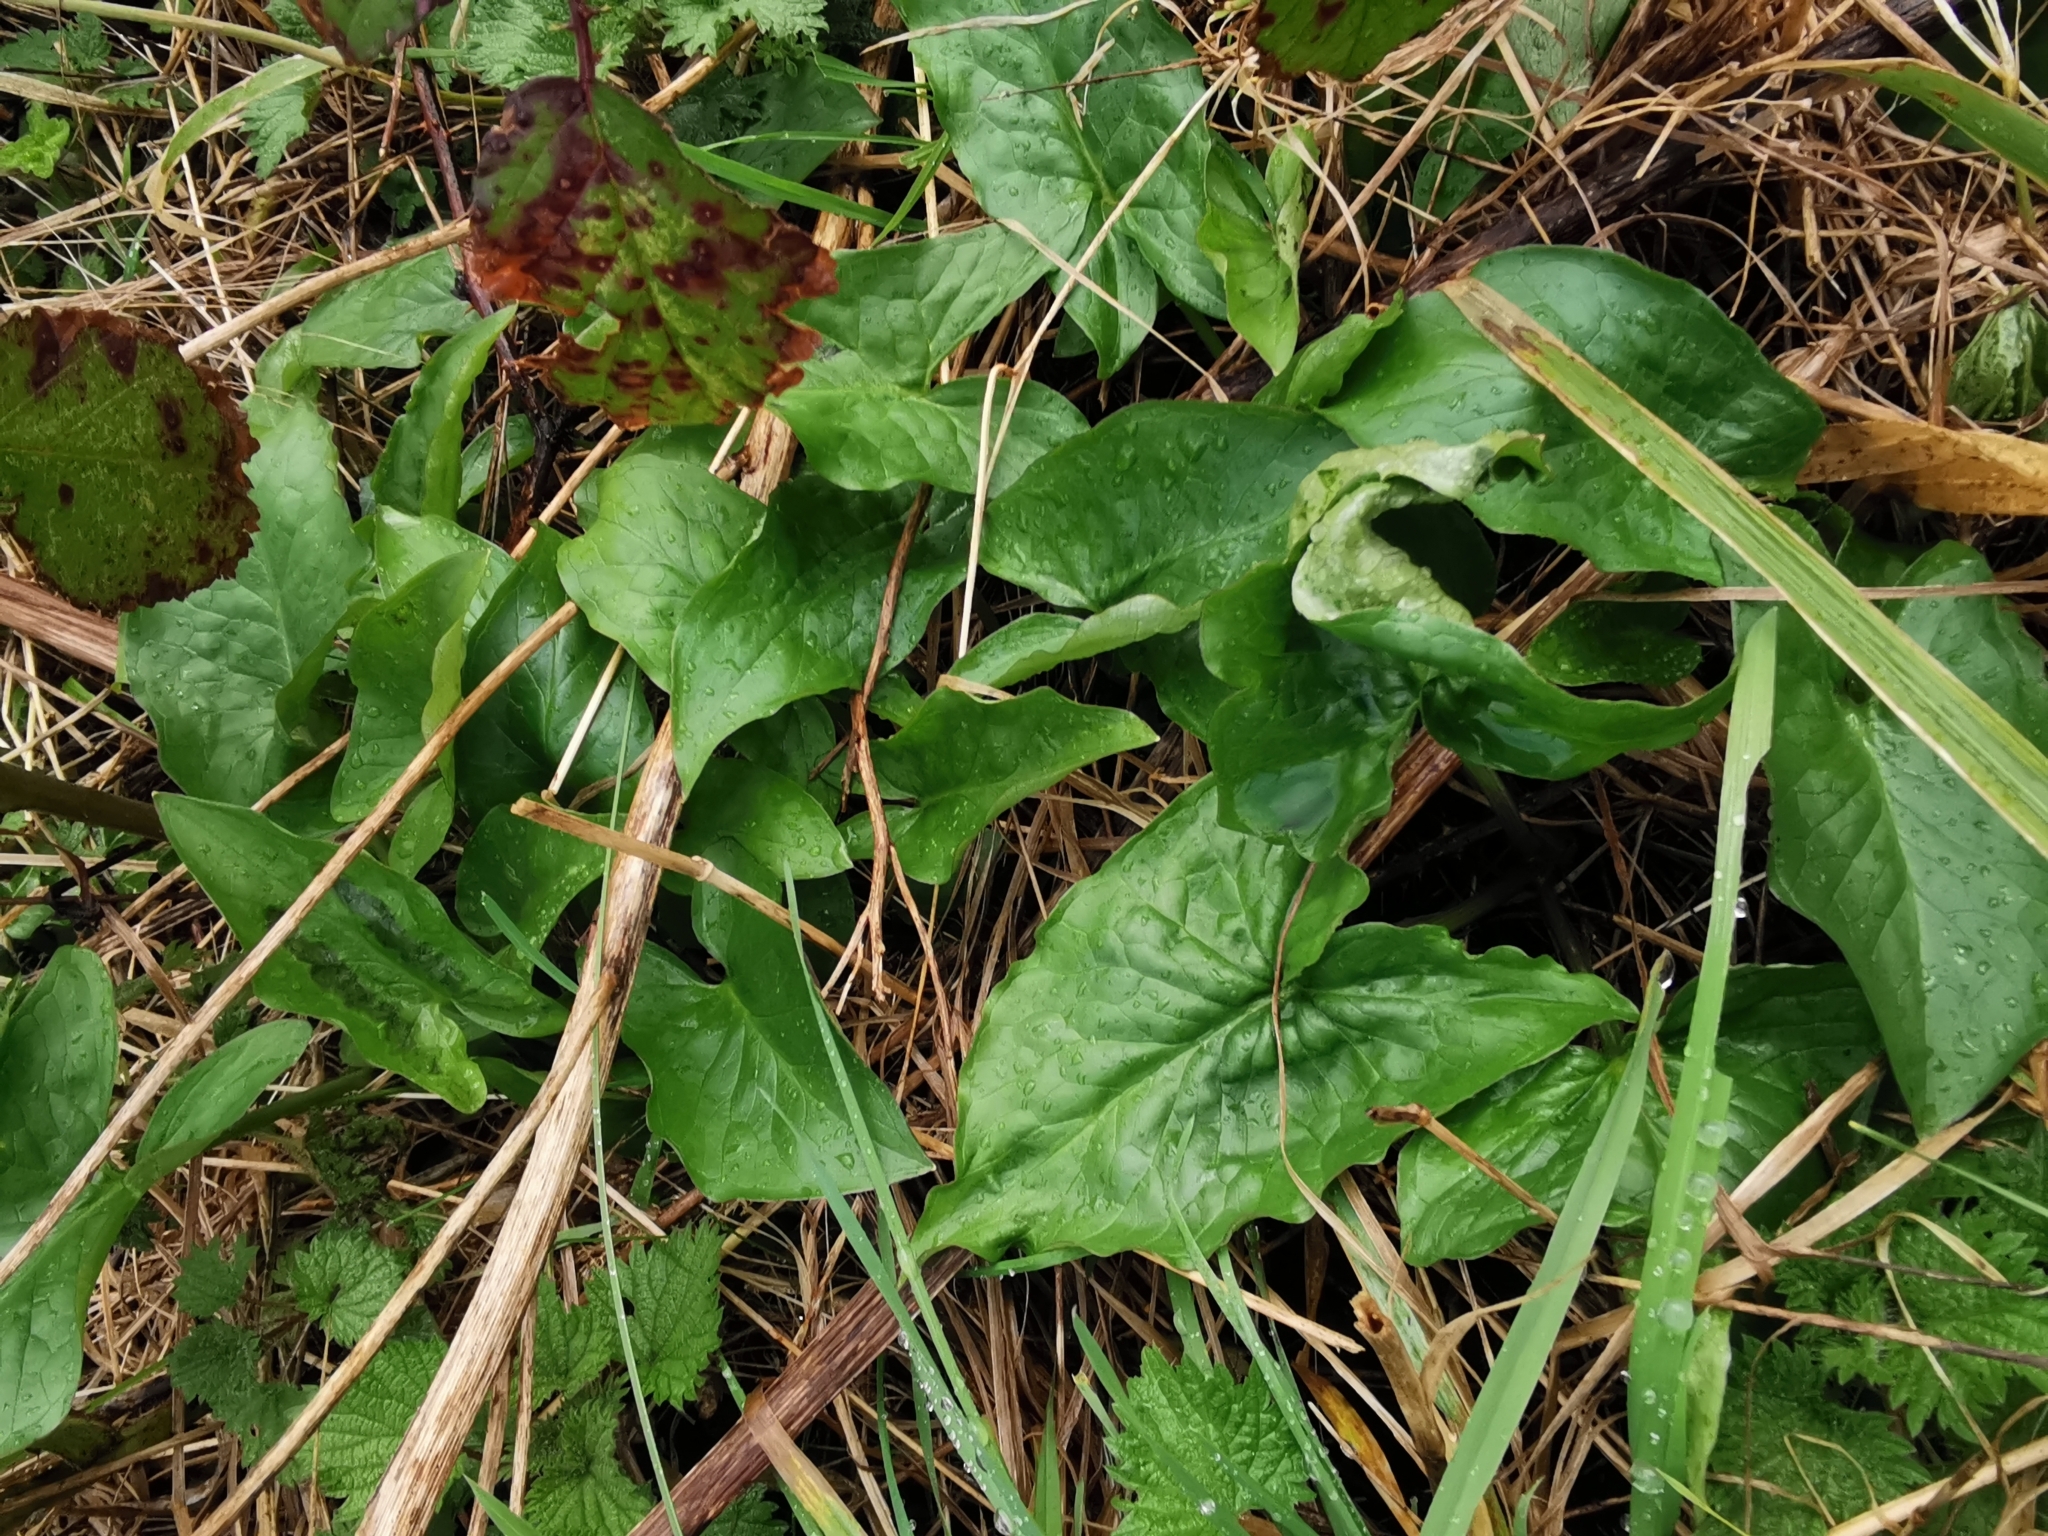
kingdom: Plantae
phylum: Tracheophyta
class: Liliopsida
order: Alismatales
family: Araceae
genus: Arum
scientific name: Arum maculatum
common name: Lords-and-ladies
